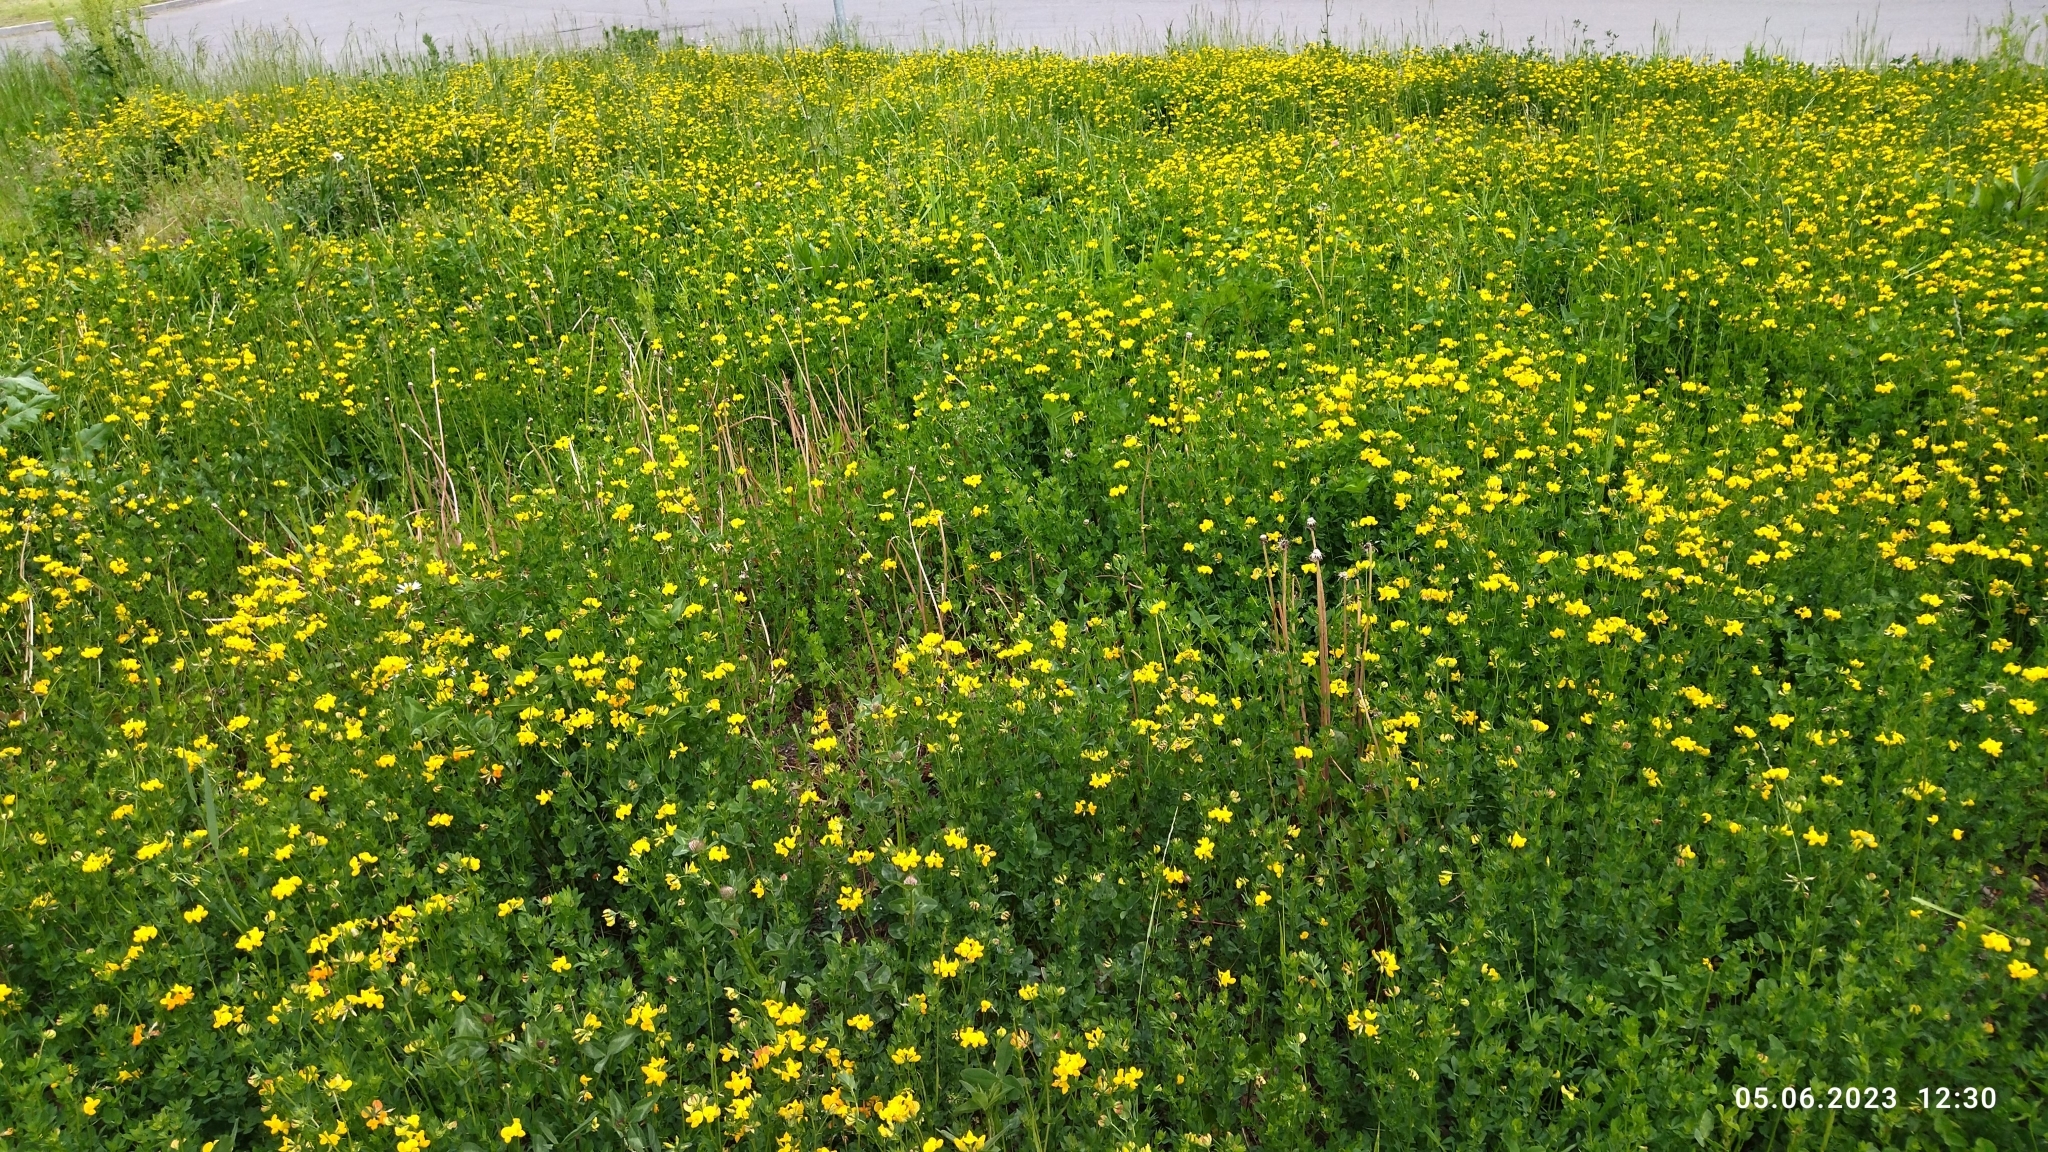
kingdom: Plantae
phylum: Tracheophyta
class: Magnoliopsida
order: Fabales
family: Fabaceae
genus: Lotus
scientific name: Lotus corniculatus
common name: Common bird's-foot-trefoil
